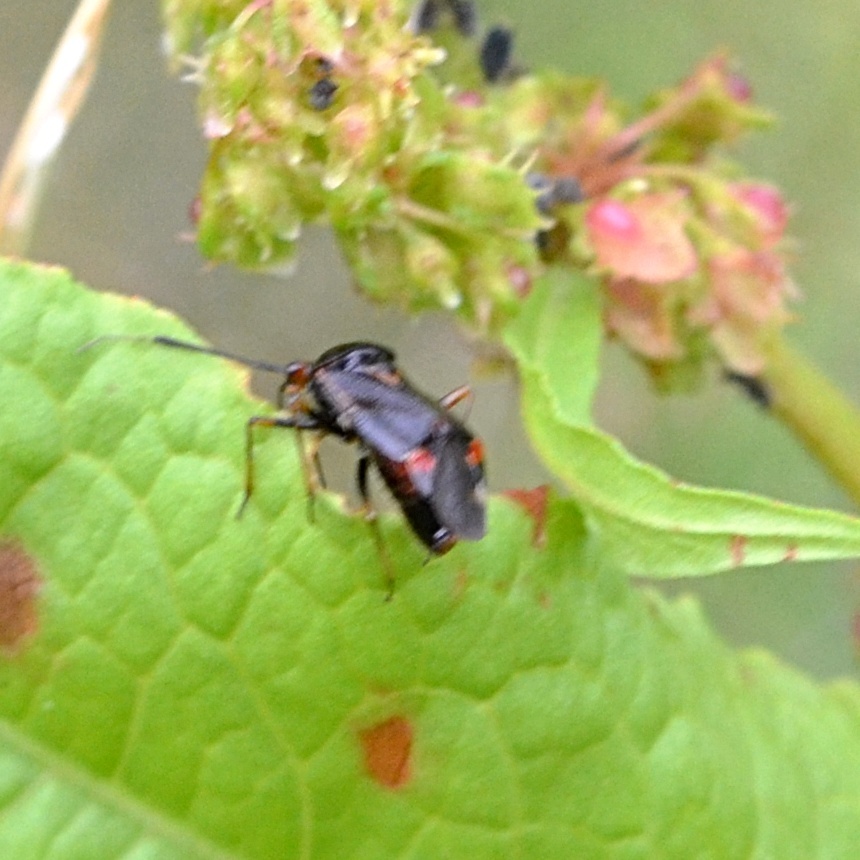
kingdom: Animalia
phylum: Arthropoda
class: Insecta
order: Hemiptera
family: Miridae
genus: Deraeocoris
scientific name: Deraeocoris ruber
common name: Plant bug
